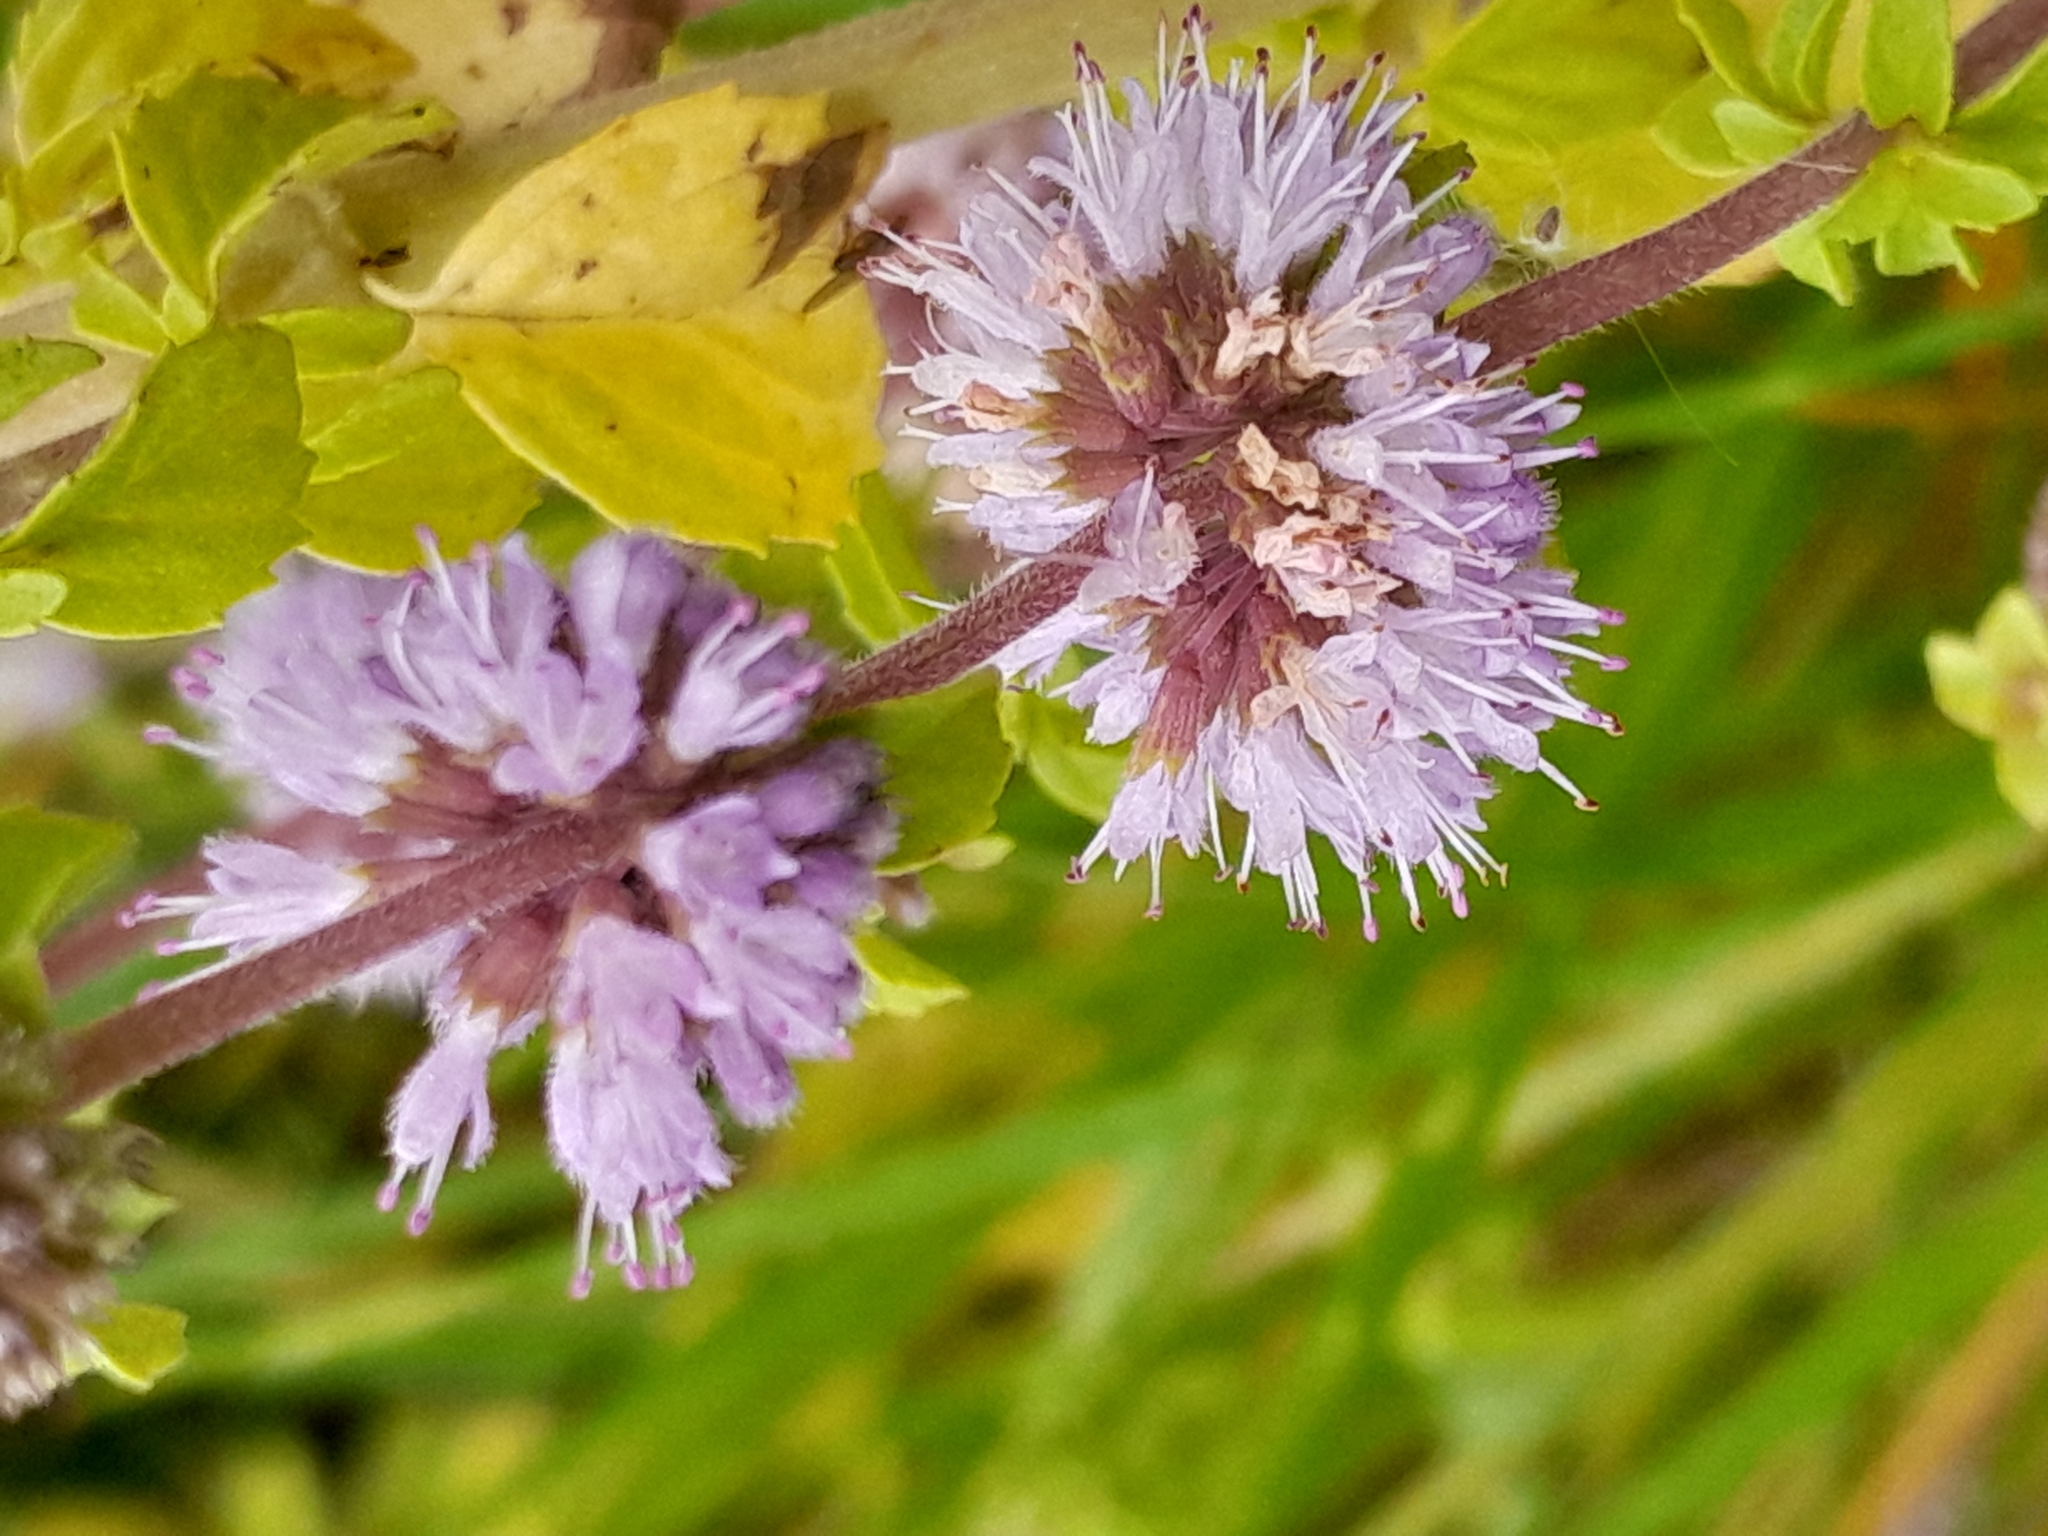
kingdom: Plantae
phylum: Tracheophyta
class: Magnoliopsida
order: Lamiales
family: Lamiaceae
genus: Mentha
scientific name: Mentha pulegium
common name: Pennyroyal
